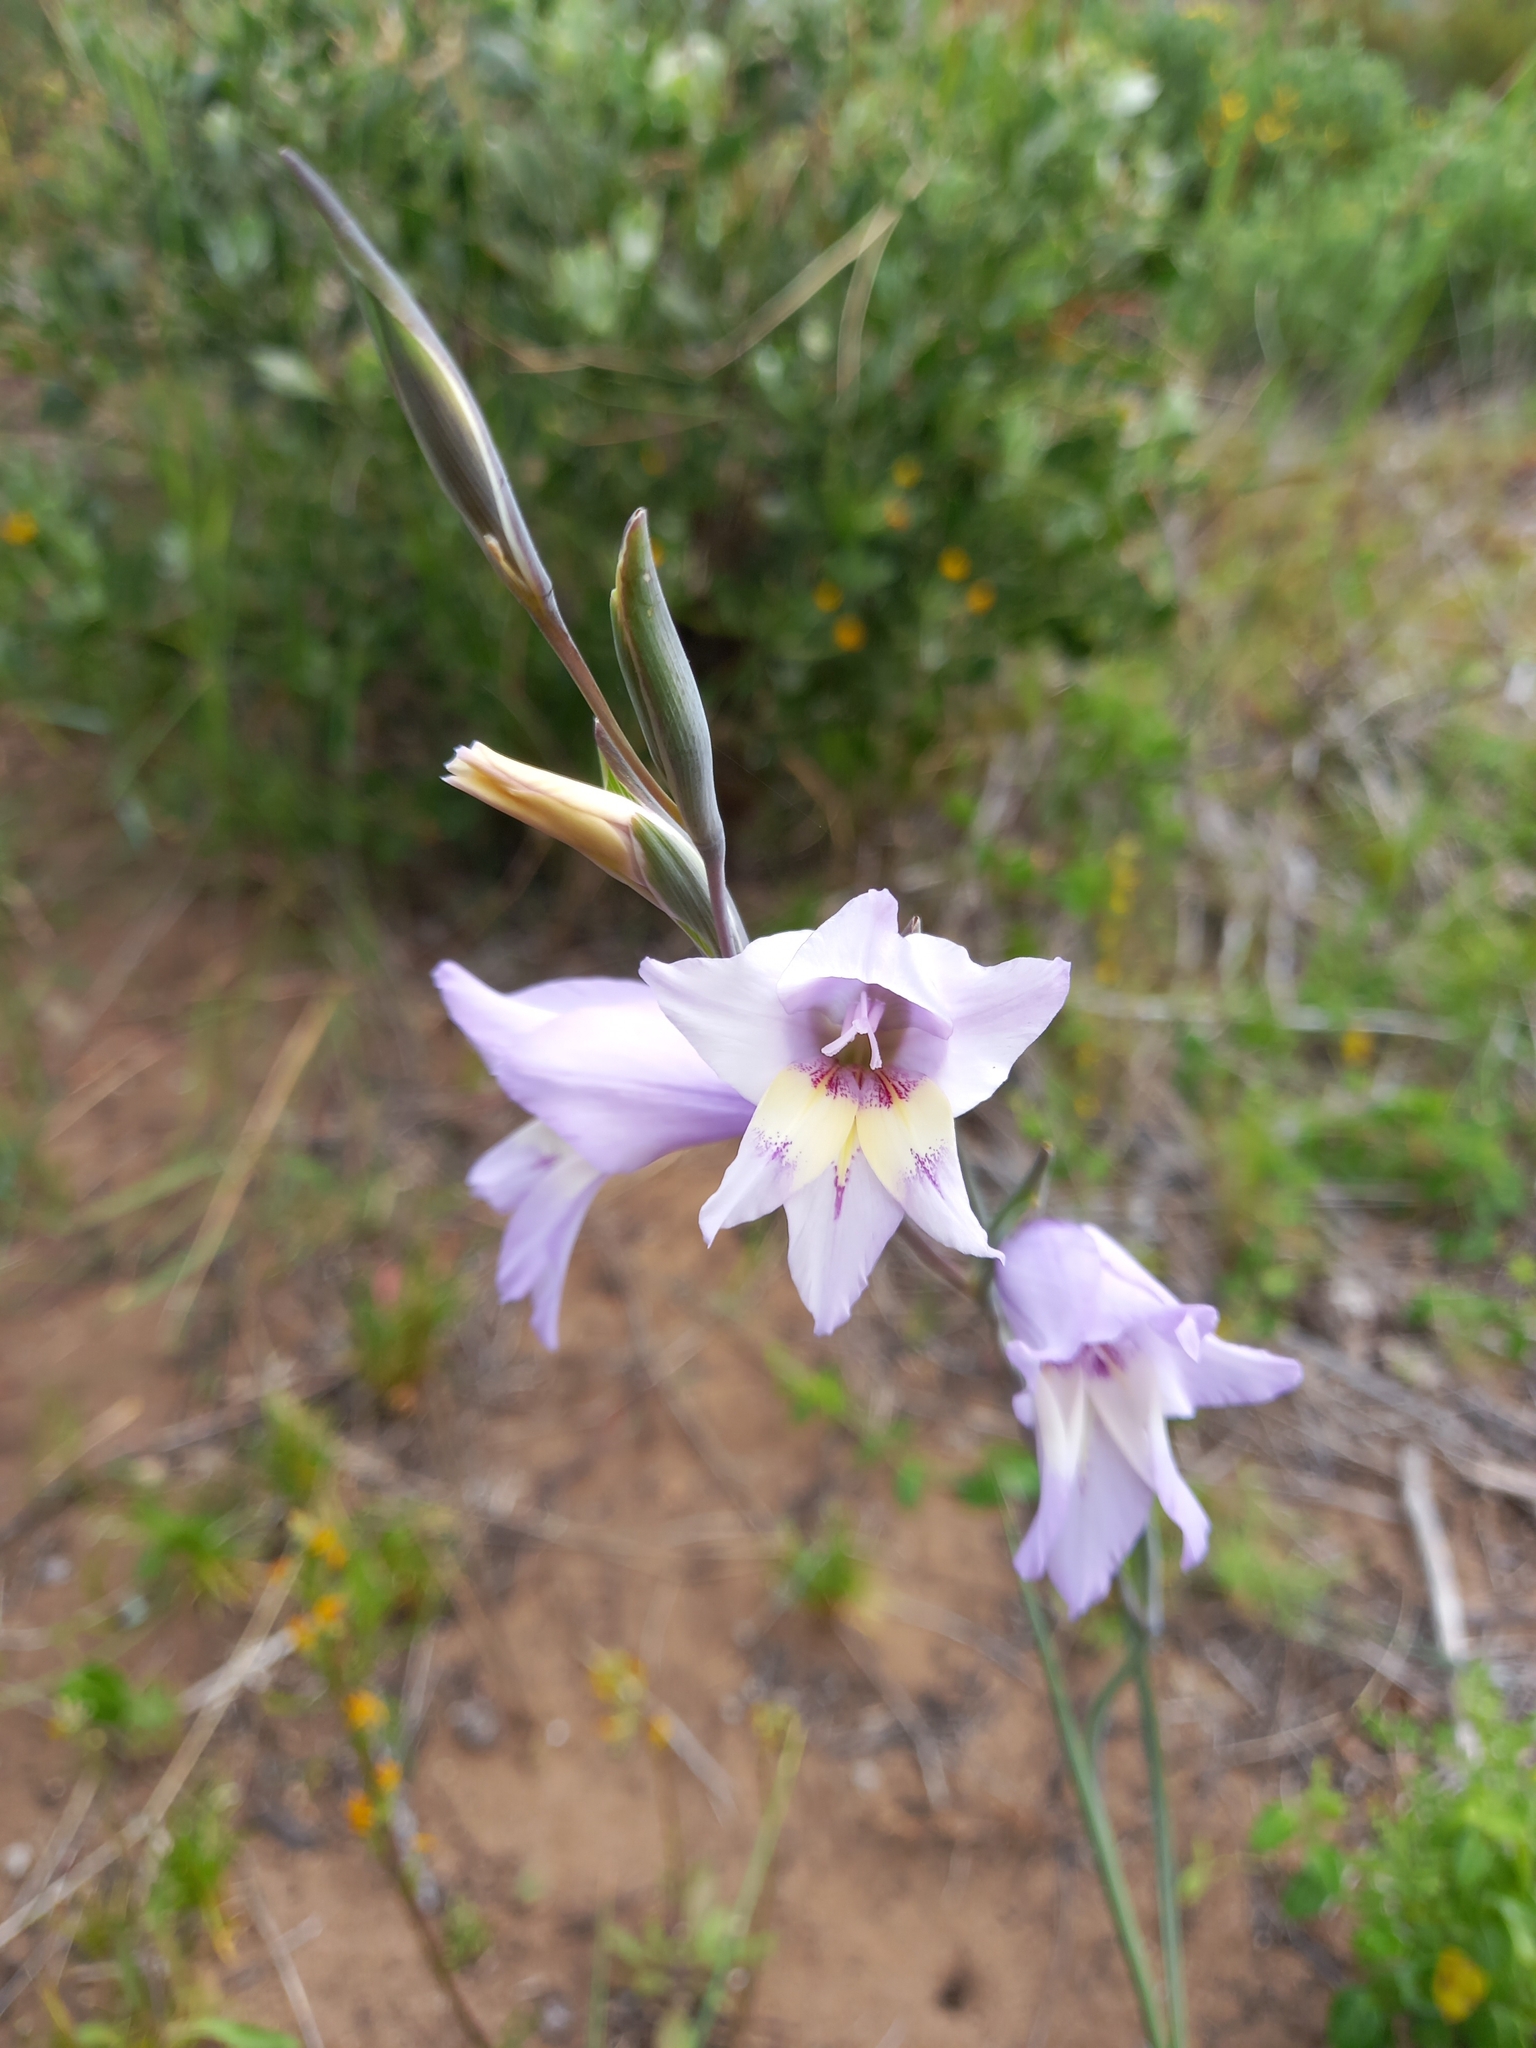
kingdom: Plantae
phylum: Tracheophyta
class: Liliopsida
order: Asparagales
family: Iridaceae
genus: Gladiolus
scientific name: Gladiolus carinatus
